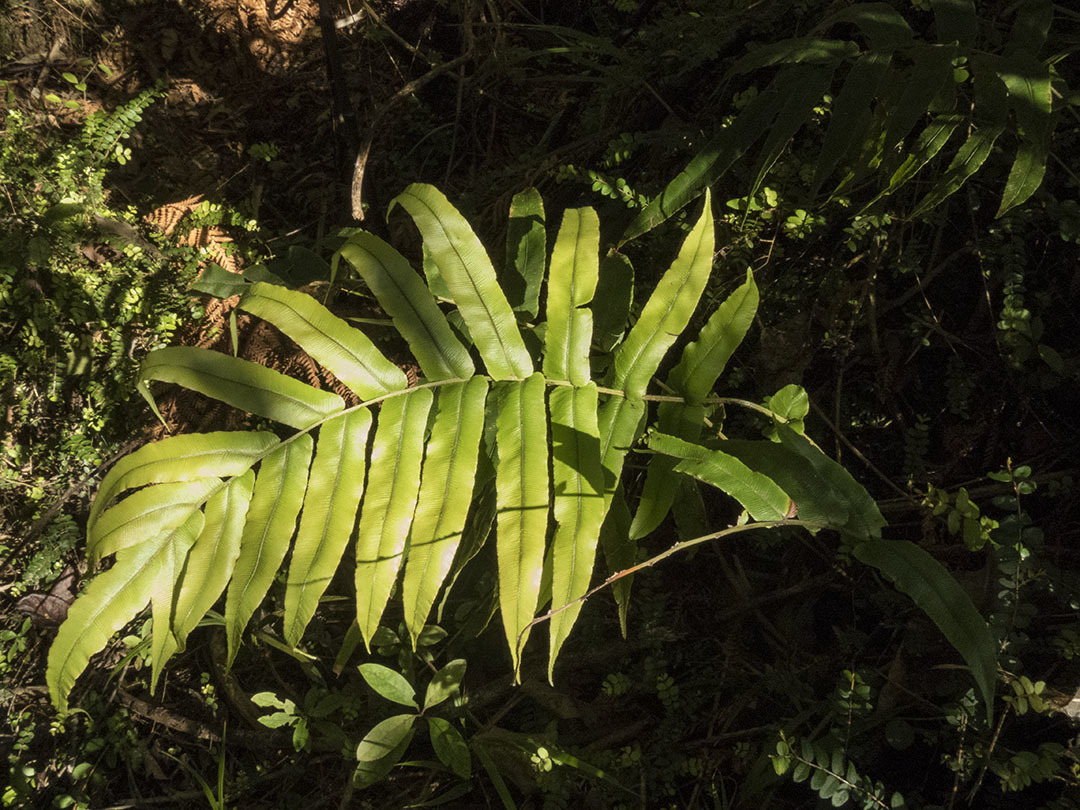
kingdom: Plantae
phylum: Tracheophyta
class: Polypodiopsida
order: Polypodiales
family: Blechnaceae
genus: Parablechnum
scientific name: Parablechnum novae-zelandiae
